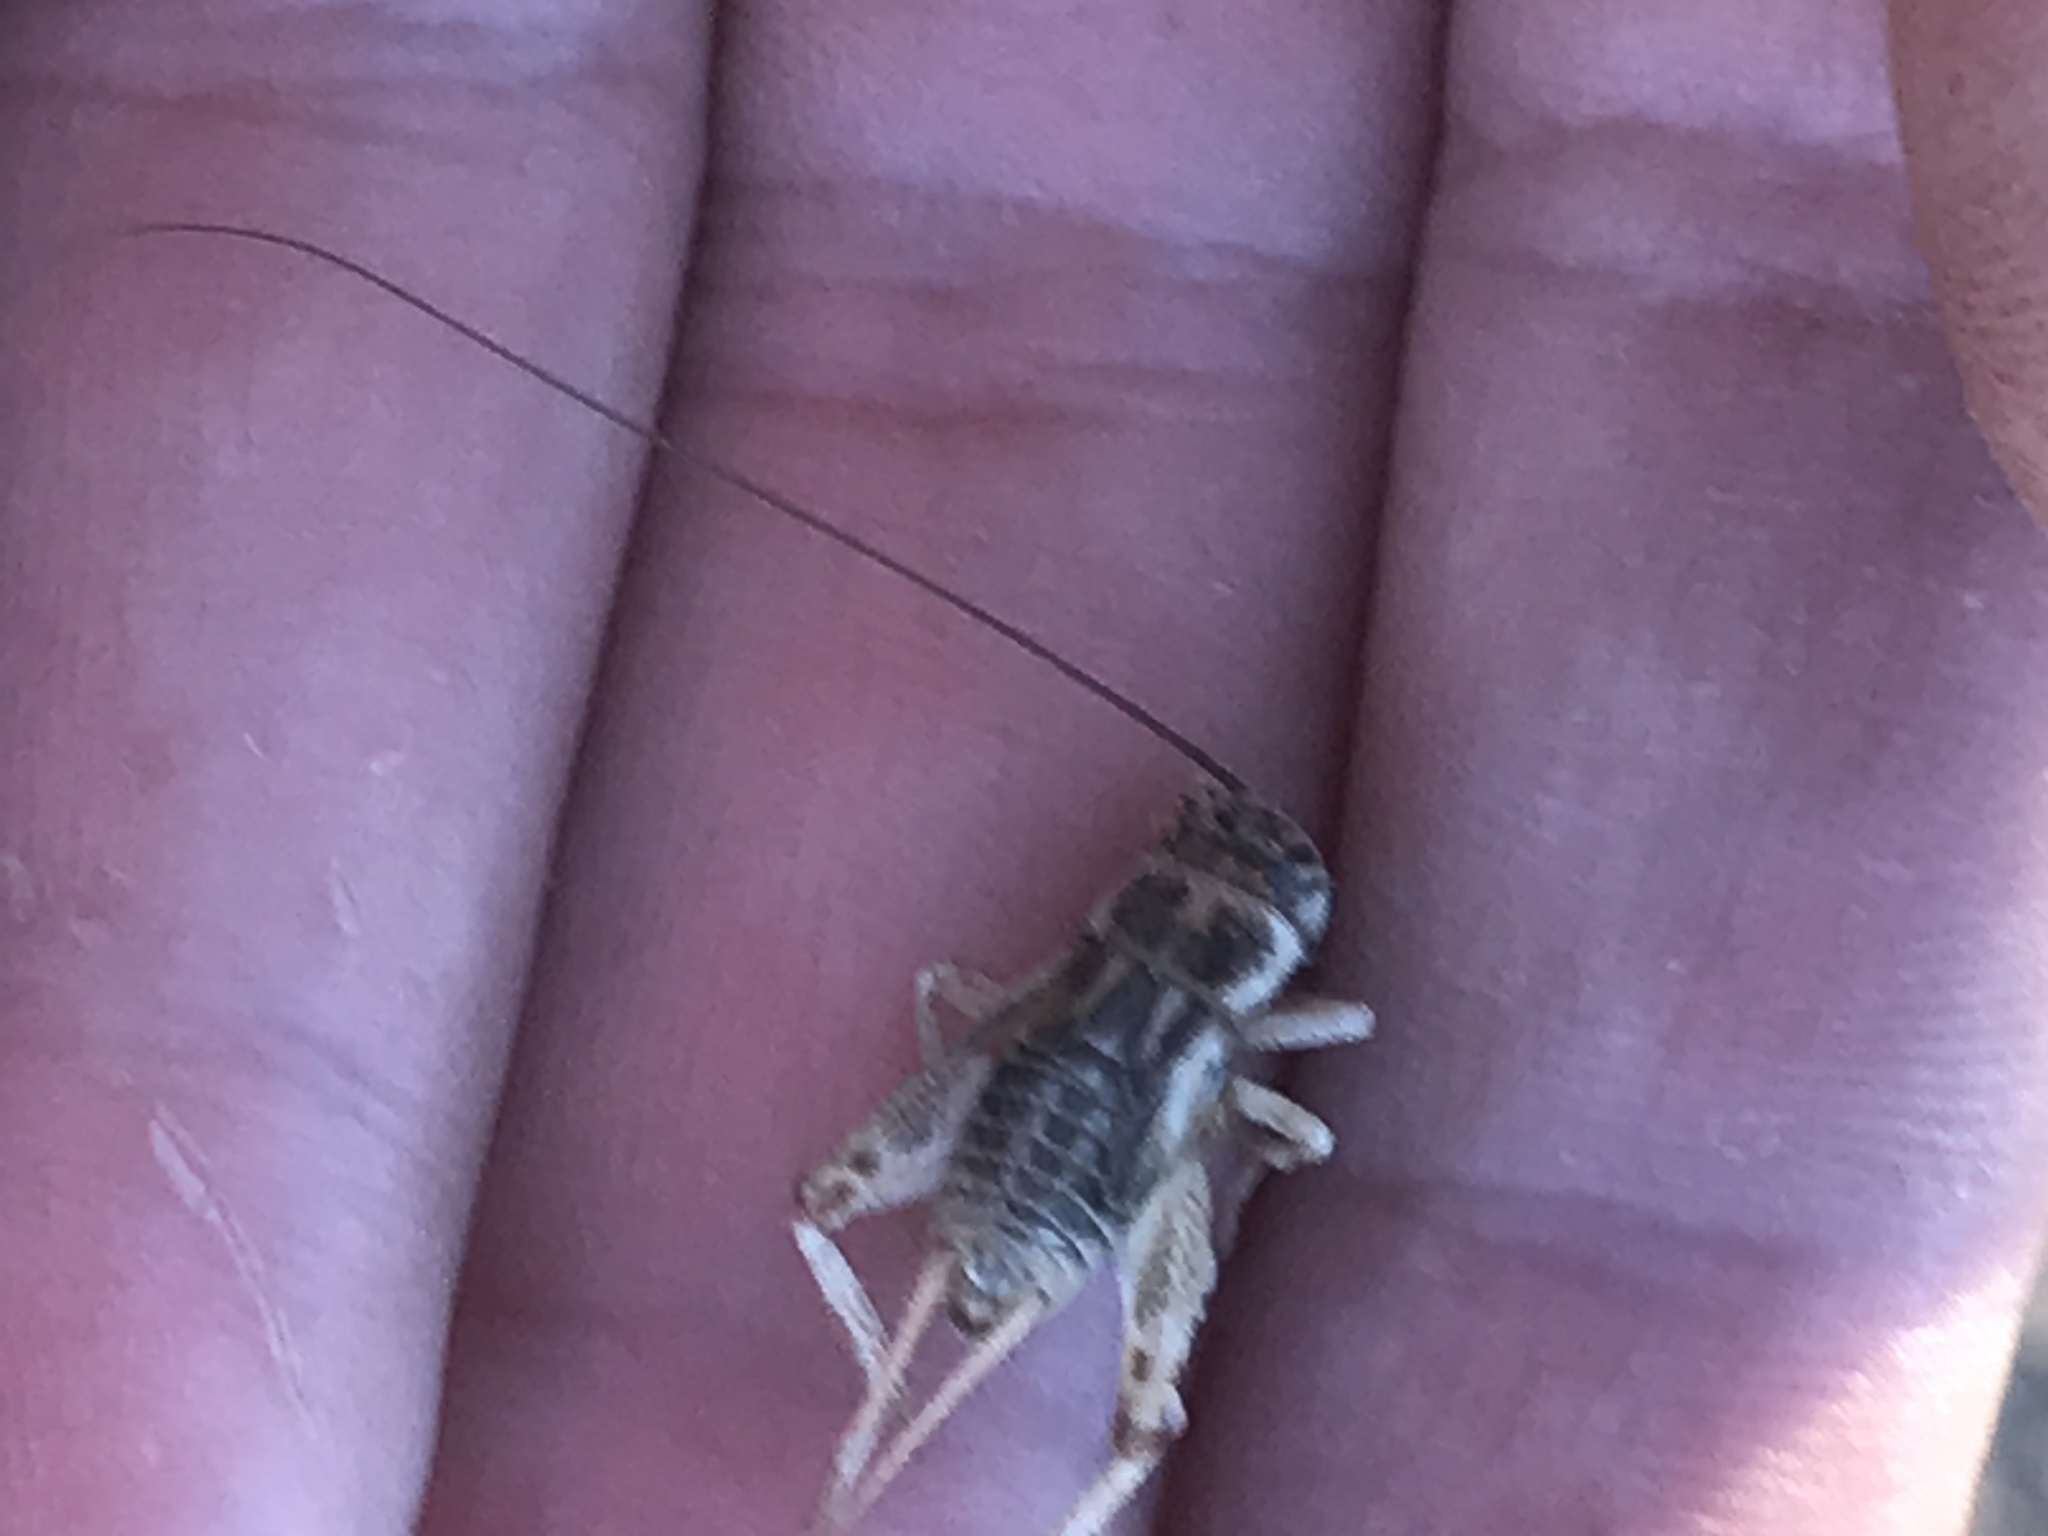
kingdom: Animalia
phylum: Arthropoda
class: Insecta
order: Orthoptera
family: Gryllidae
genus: Gryllodes
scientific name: Gryllodes sigillatus
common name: Tropical house cricket
